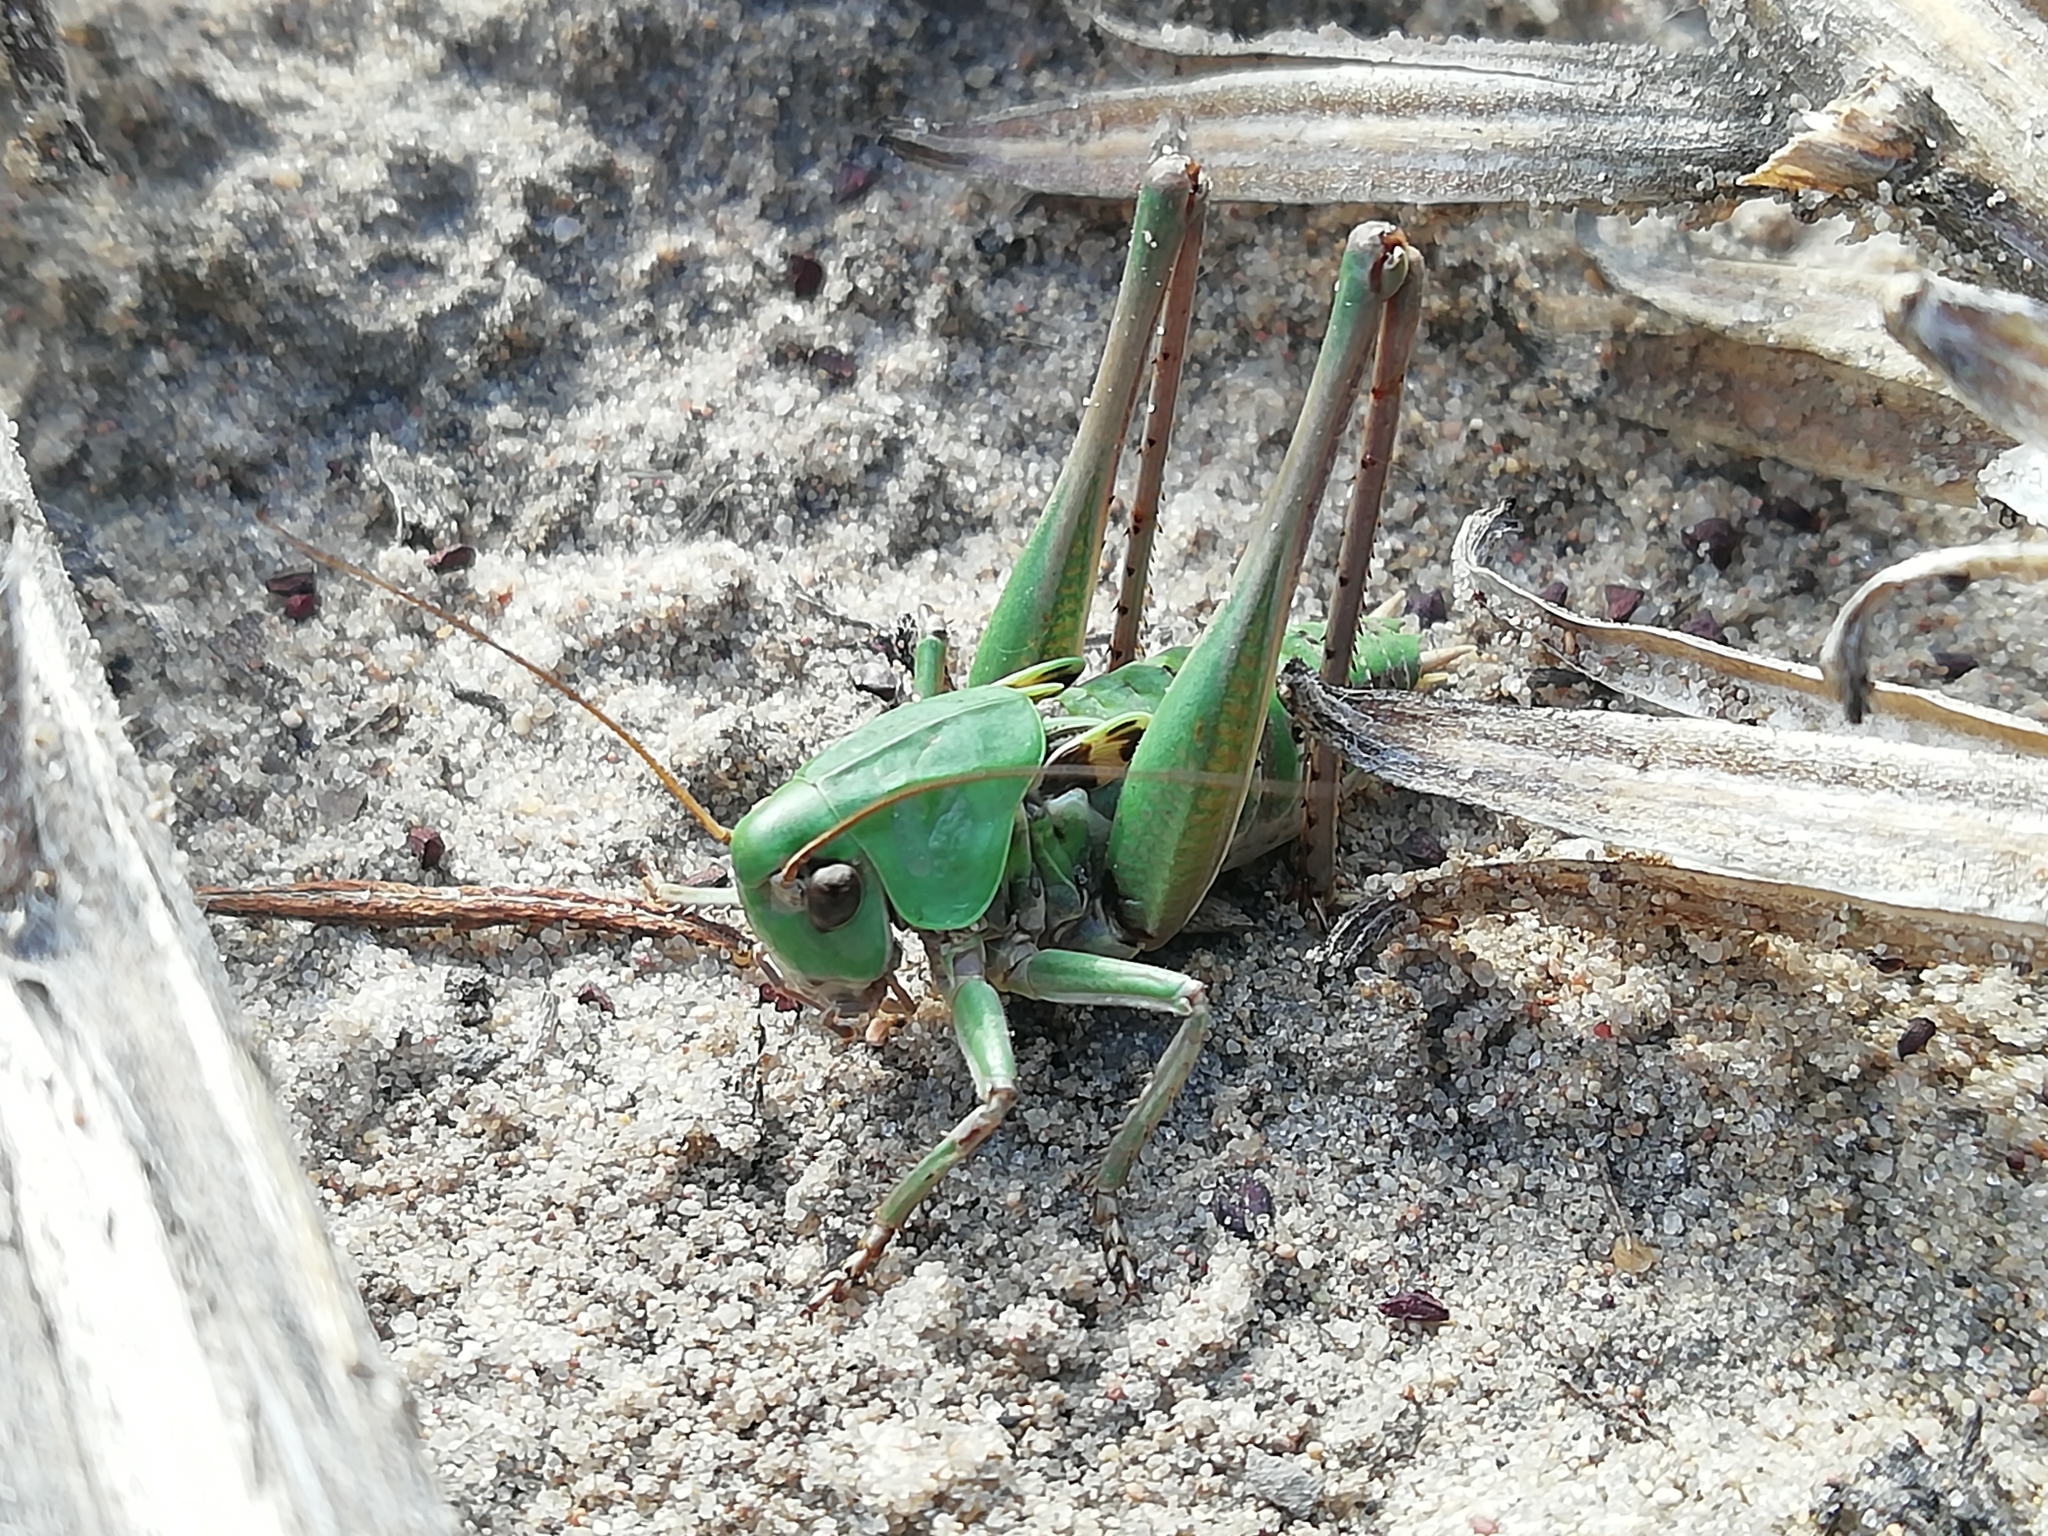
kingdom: Animalia
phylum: Arthropoda
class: Insecta
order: Orthoptera
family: Tettigoniidae
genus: Decticus
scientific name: Decticus verrucivorus
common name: Wart-biter
